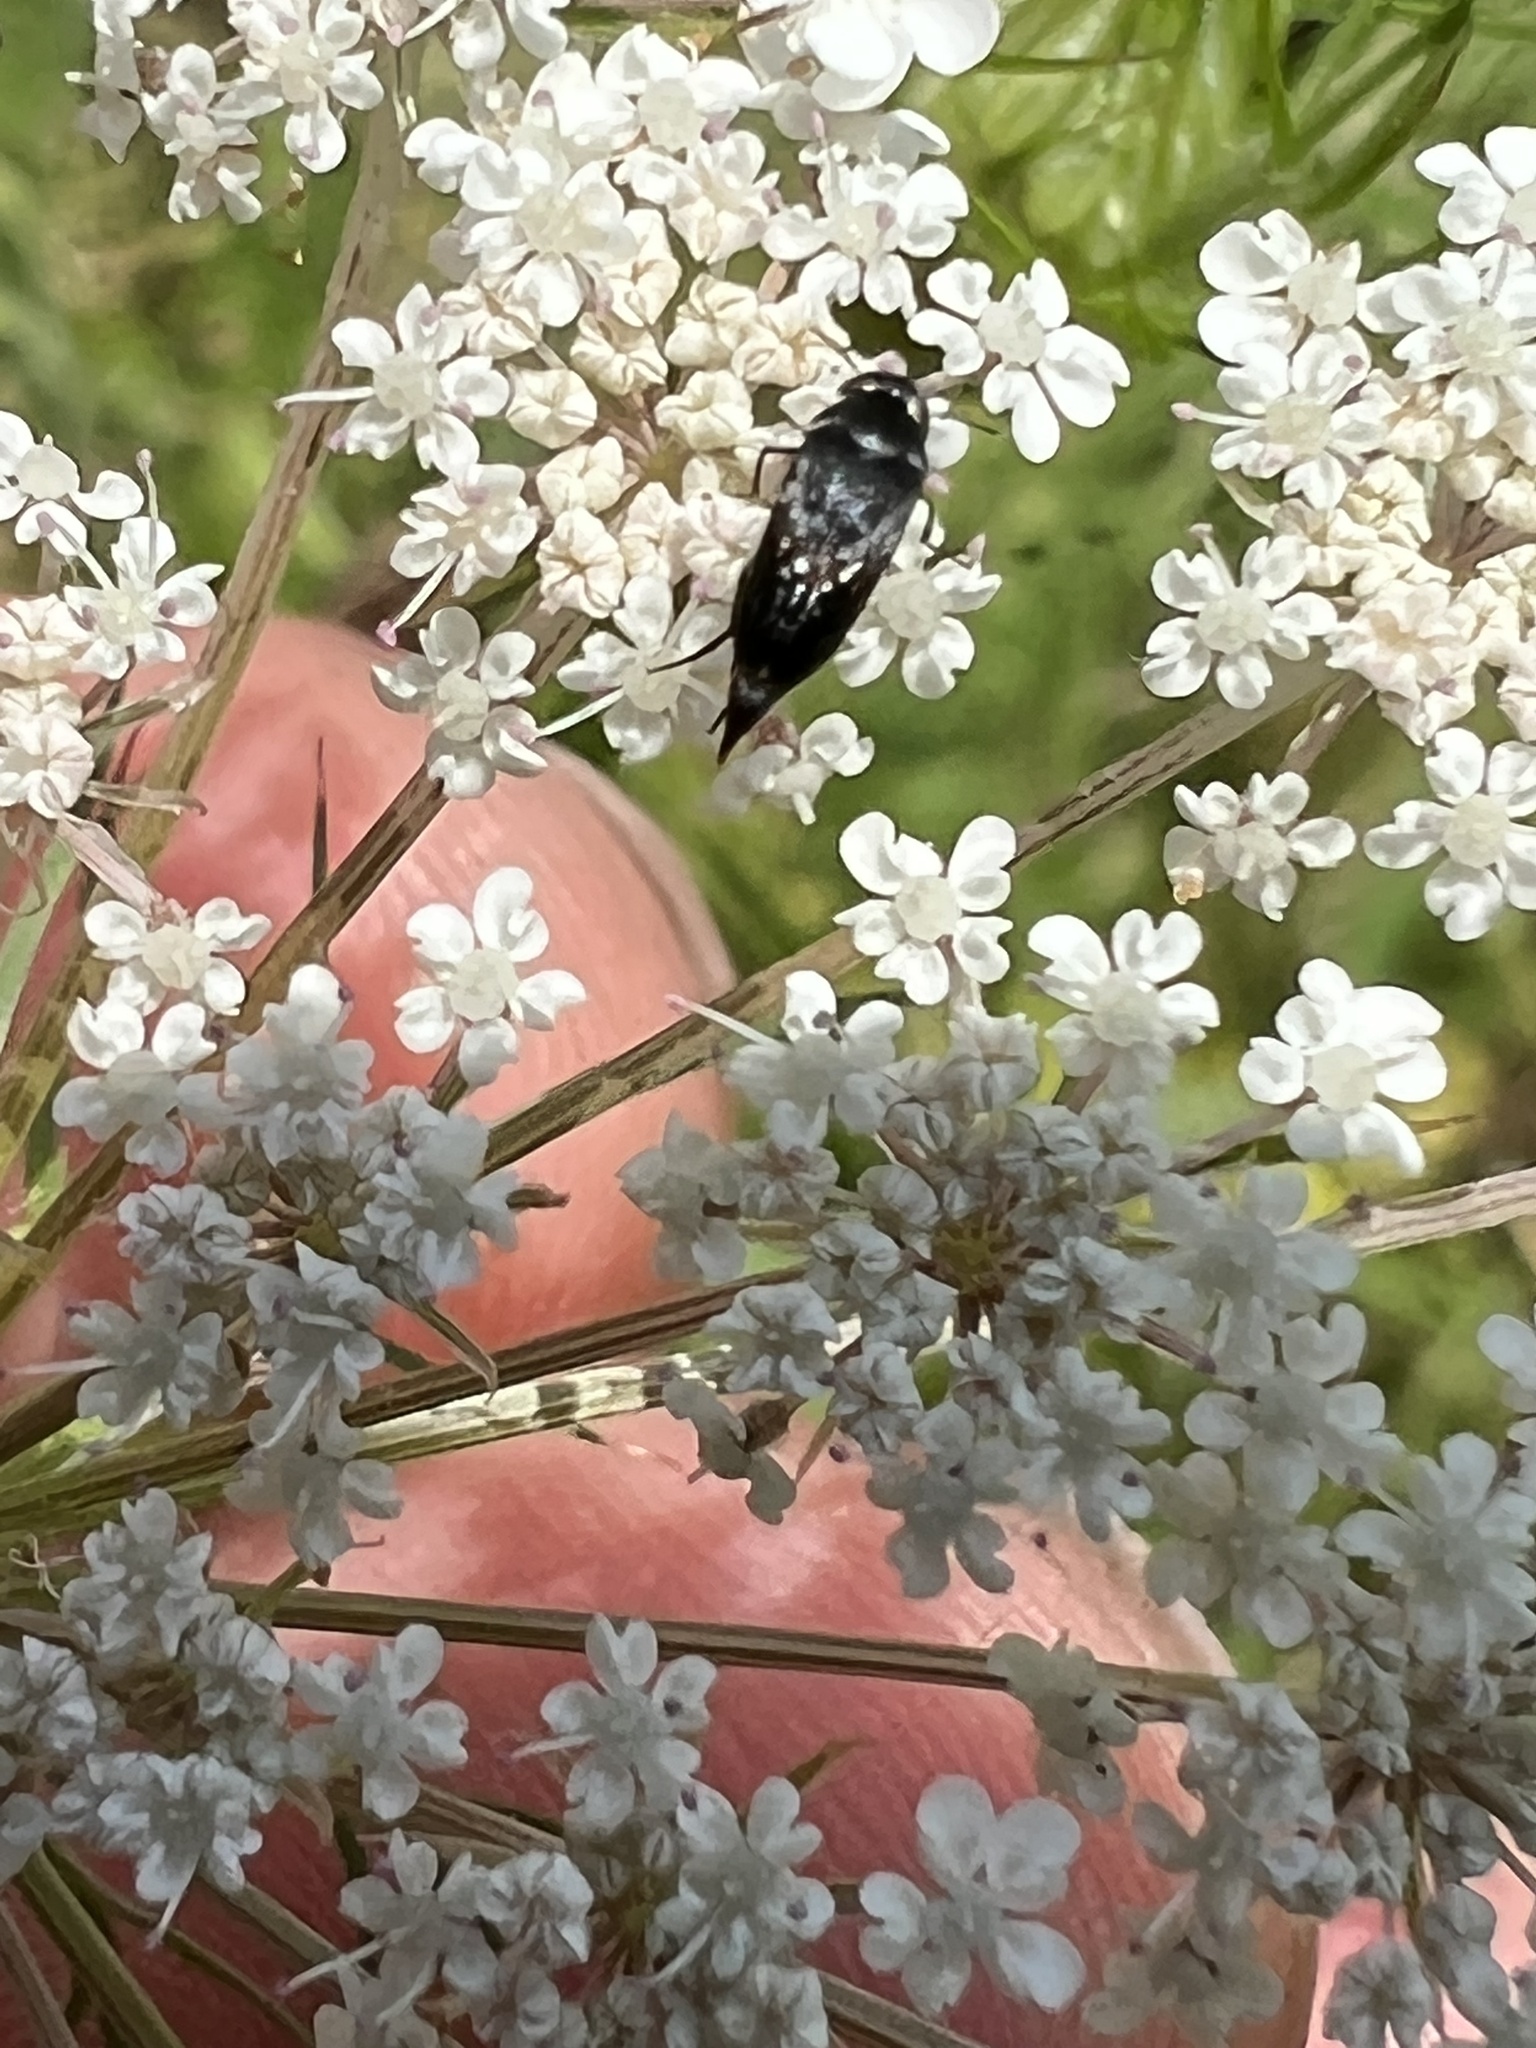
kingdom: Animalia
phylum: Arthropoda
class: Insecta
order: Coleoptera
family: Mordellidae
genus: Mordella
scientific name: Mordella marginata
